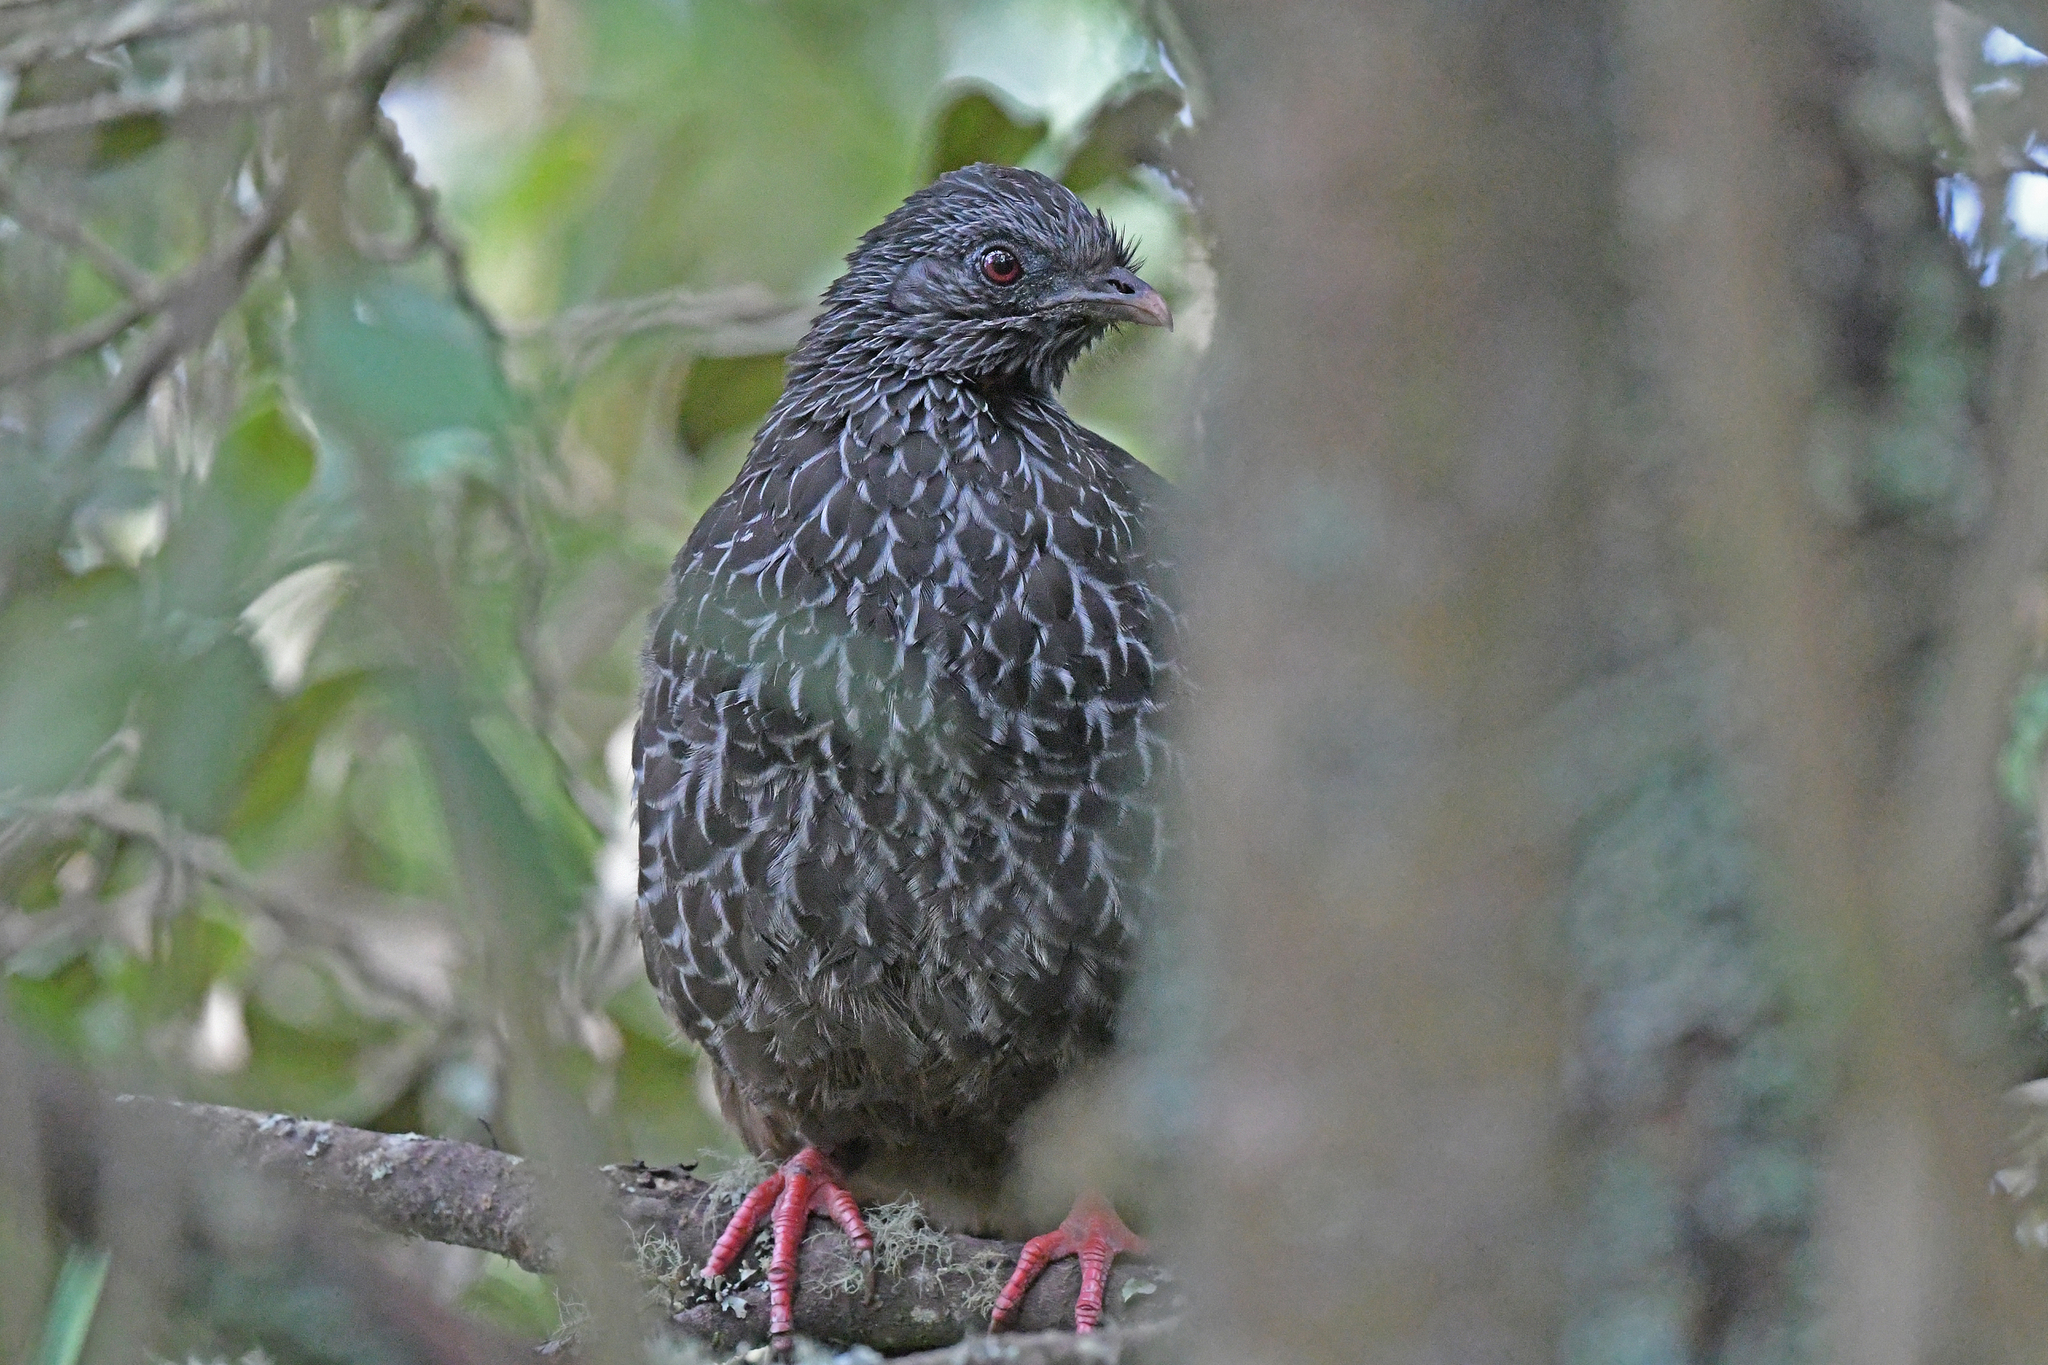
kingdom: Animalia
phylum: Chordata
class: Aves
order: Galliformes
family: Cracidae
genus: Penelope
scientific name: Penelope montagnii
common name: Andean guan
